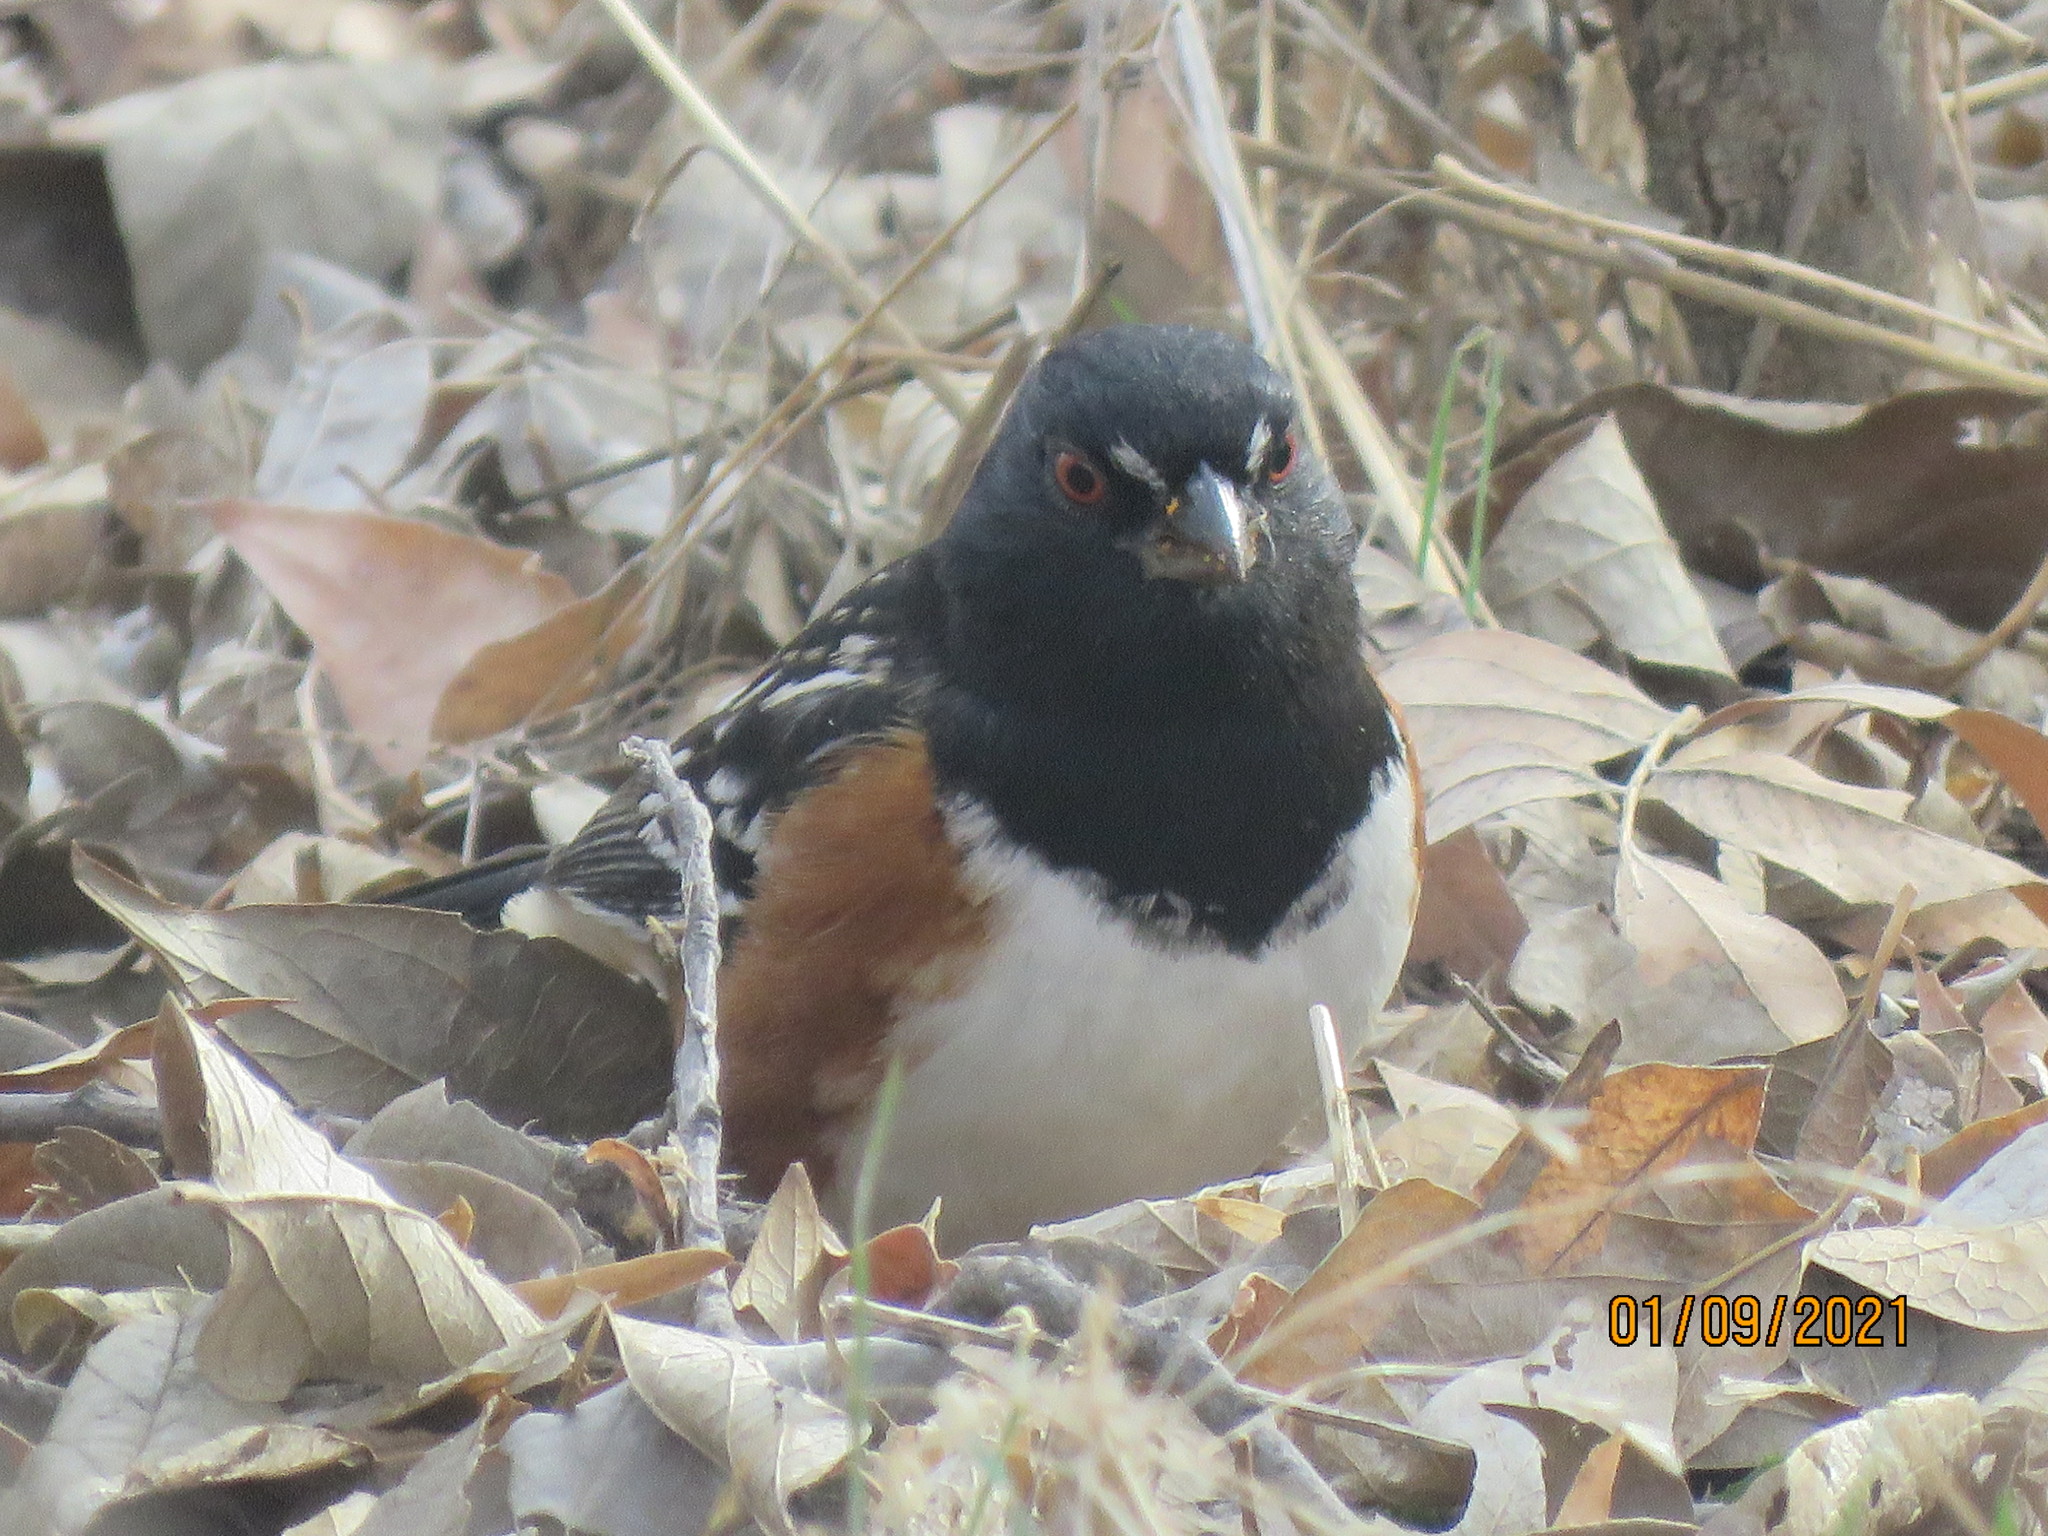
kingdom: Animalia
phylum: Chordata
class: Aves
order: Passeriformes
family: Passerellidae
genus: Pipilo
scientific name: Pipilo maculatus
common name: Spotted towhee
